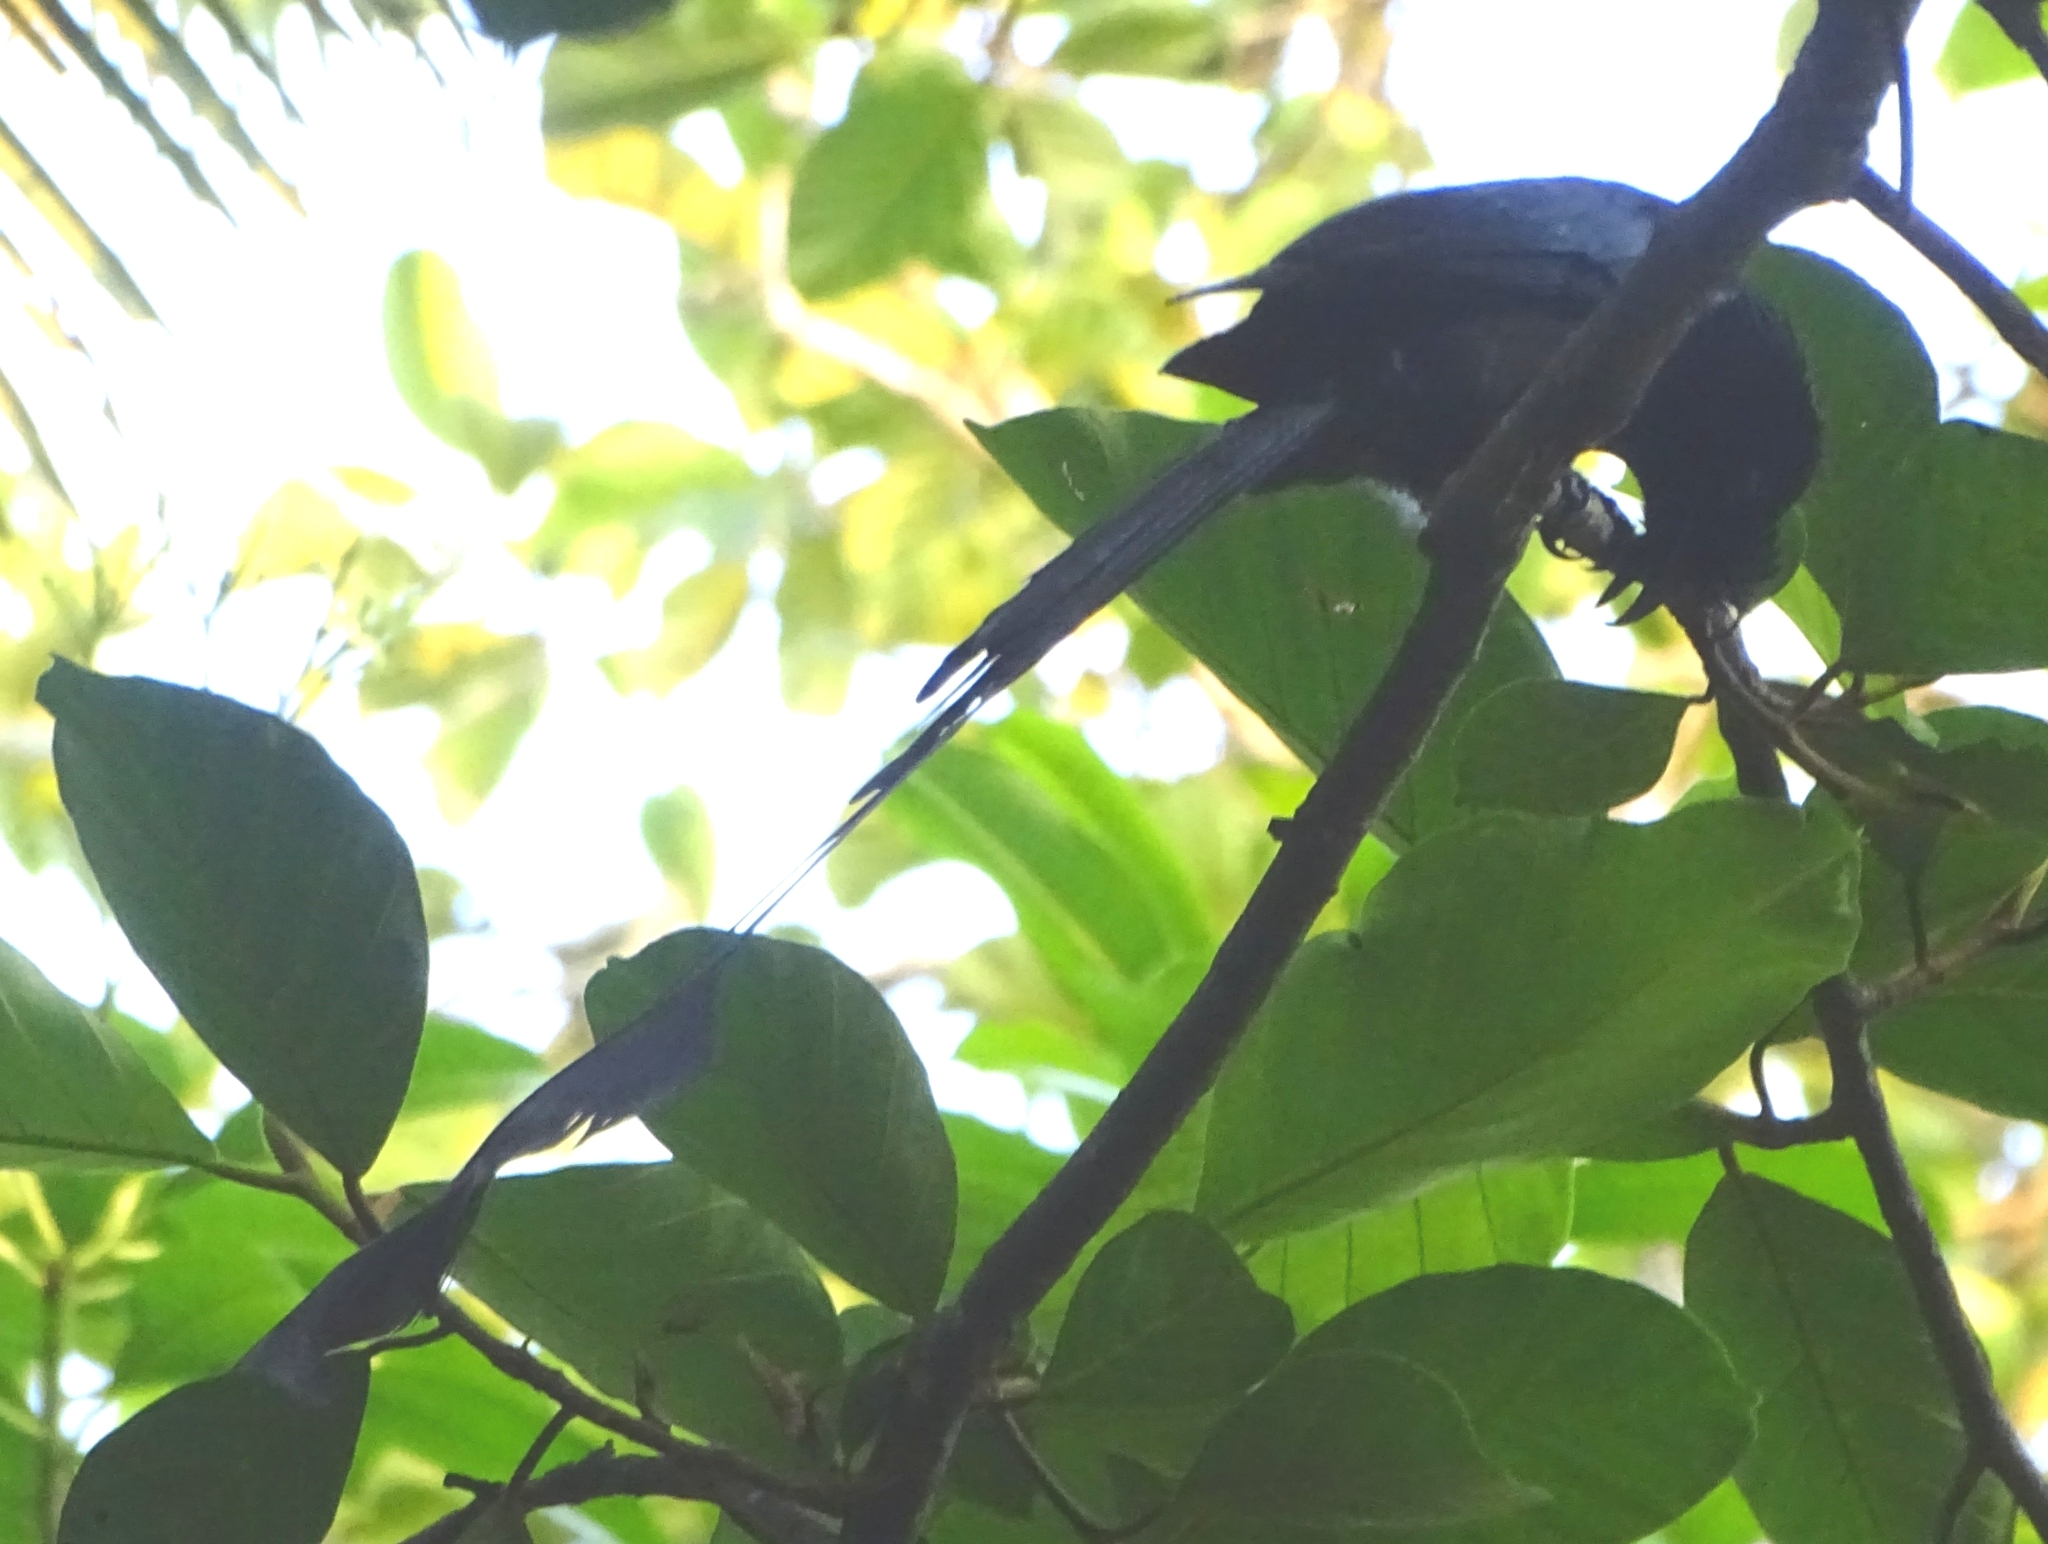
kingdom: Animalia
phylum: Chordata
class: Aves
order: Passeriformes
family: Dicruridae
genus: Dicrurus
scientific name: Dicrurus paradiseus
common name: Greater racket-tailed drongo
